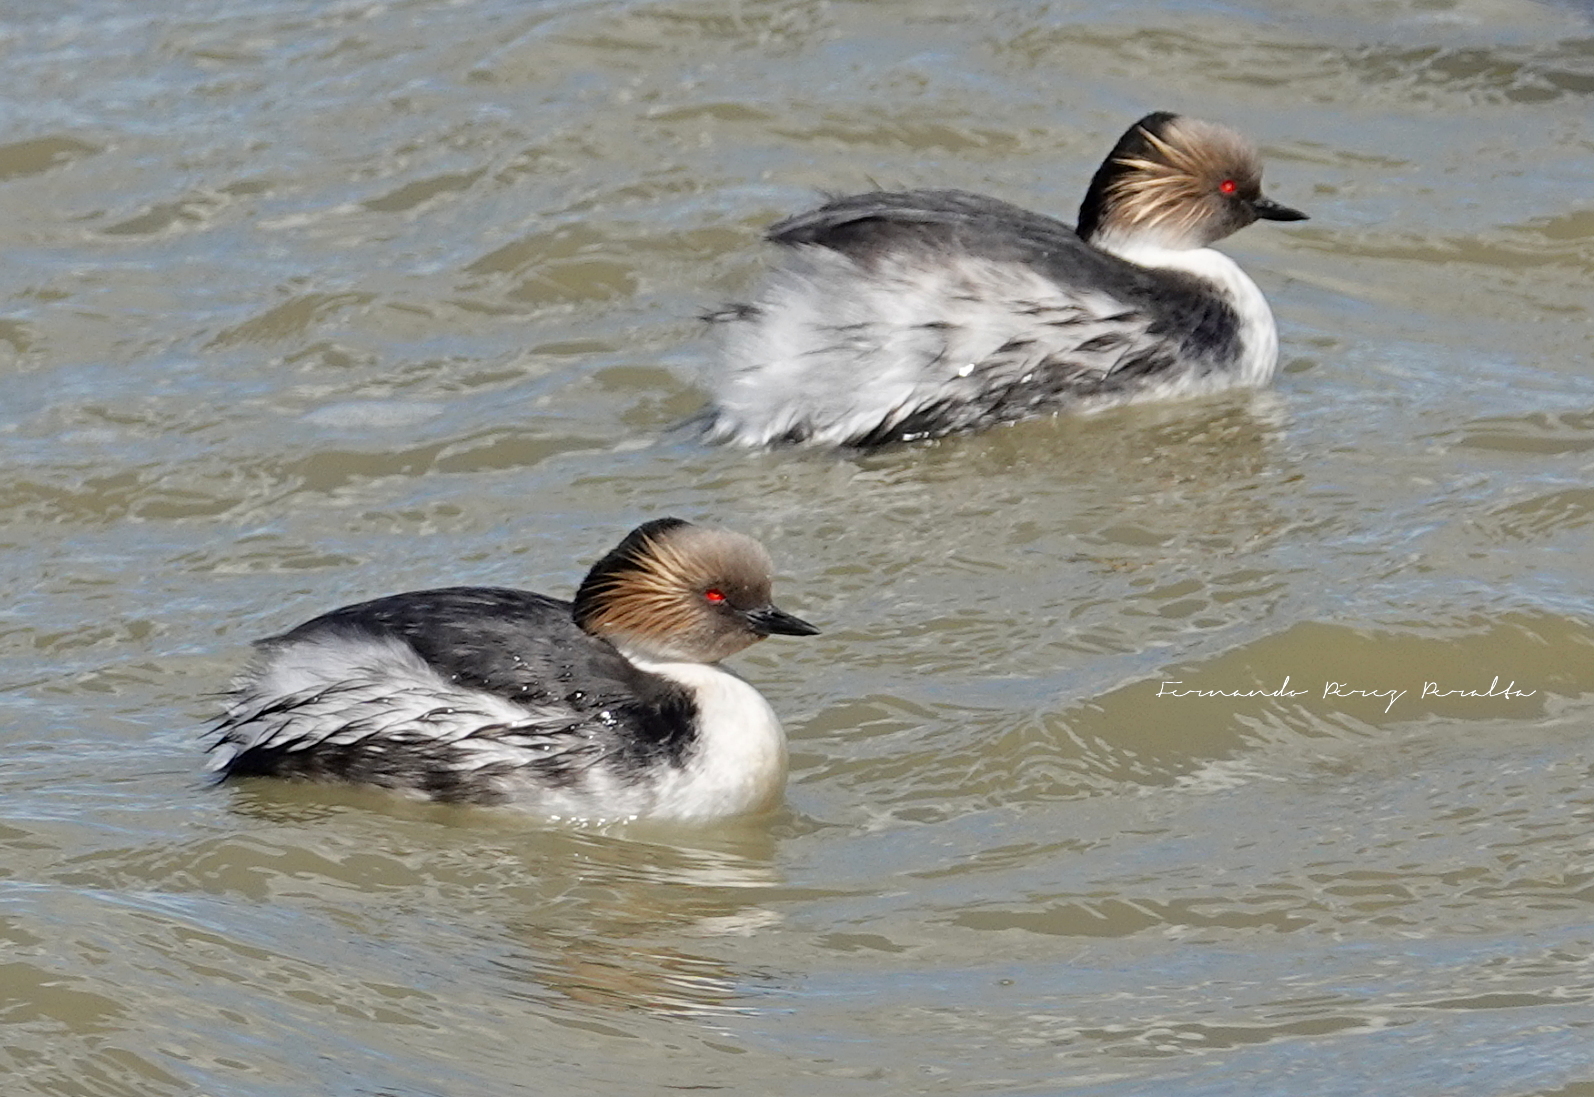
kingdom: Animalia
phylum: Chordata
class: Aves
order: Podicipediformes
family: Podicipedidae
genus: Podiceps
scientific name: Podiceps occipitalis
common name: Silvery grebe
